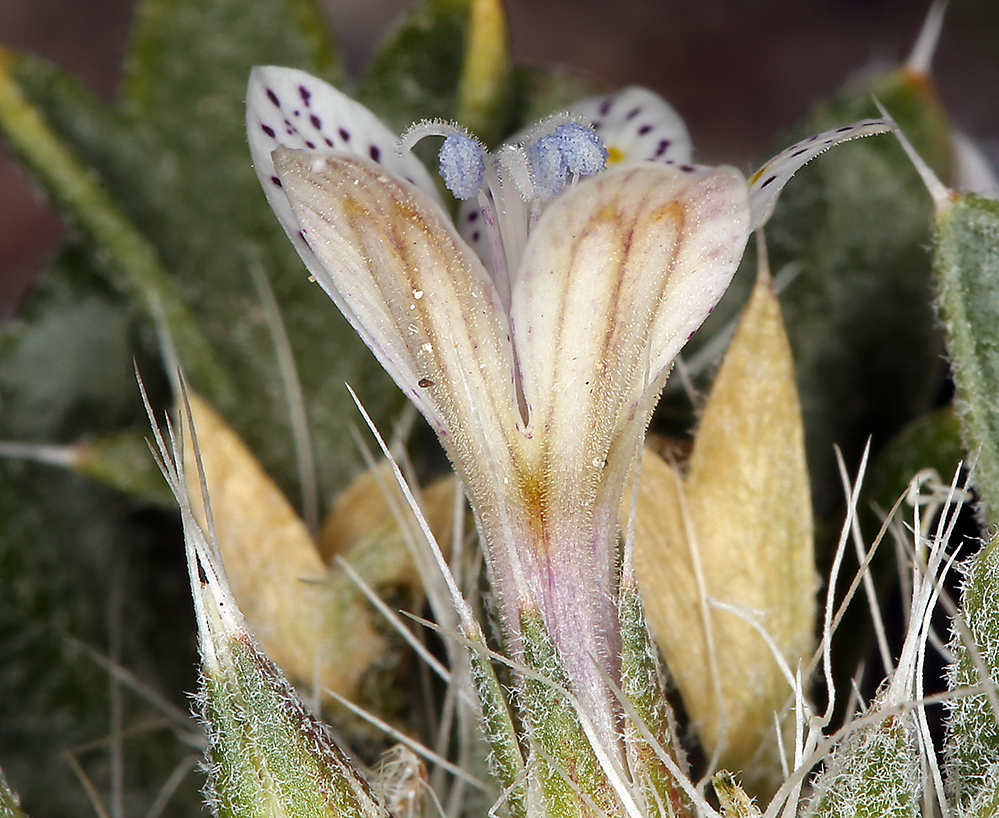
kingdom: Plantae
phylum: Tracheophyta
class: Magnoliopsida
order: Ericales
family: Polemoniaceae
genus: Langloisia
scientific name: Langloisia setosissima
